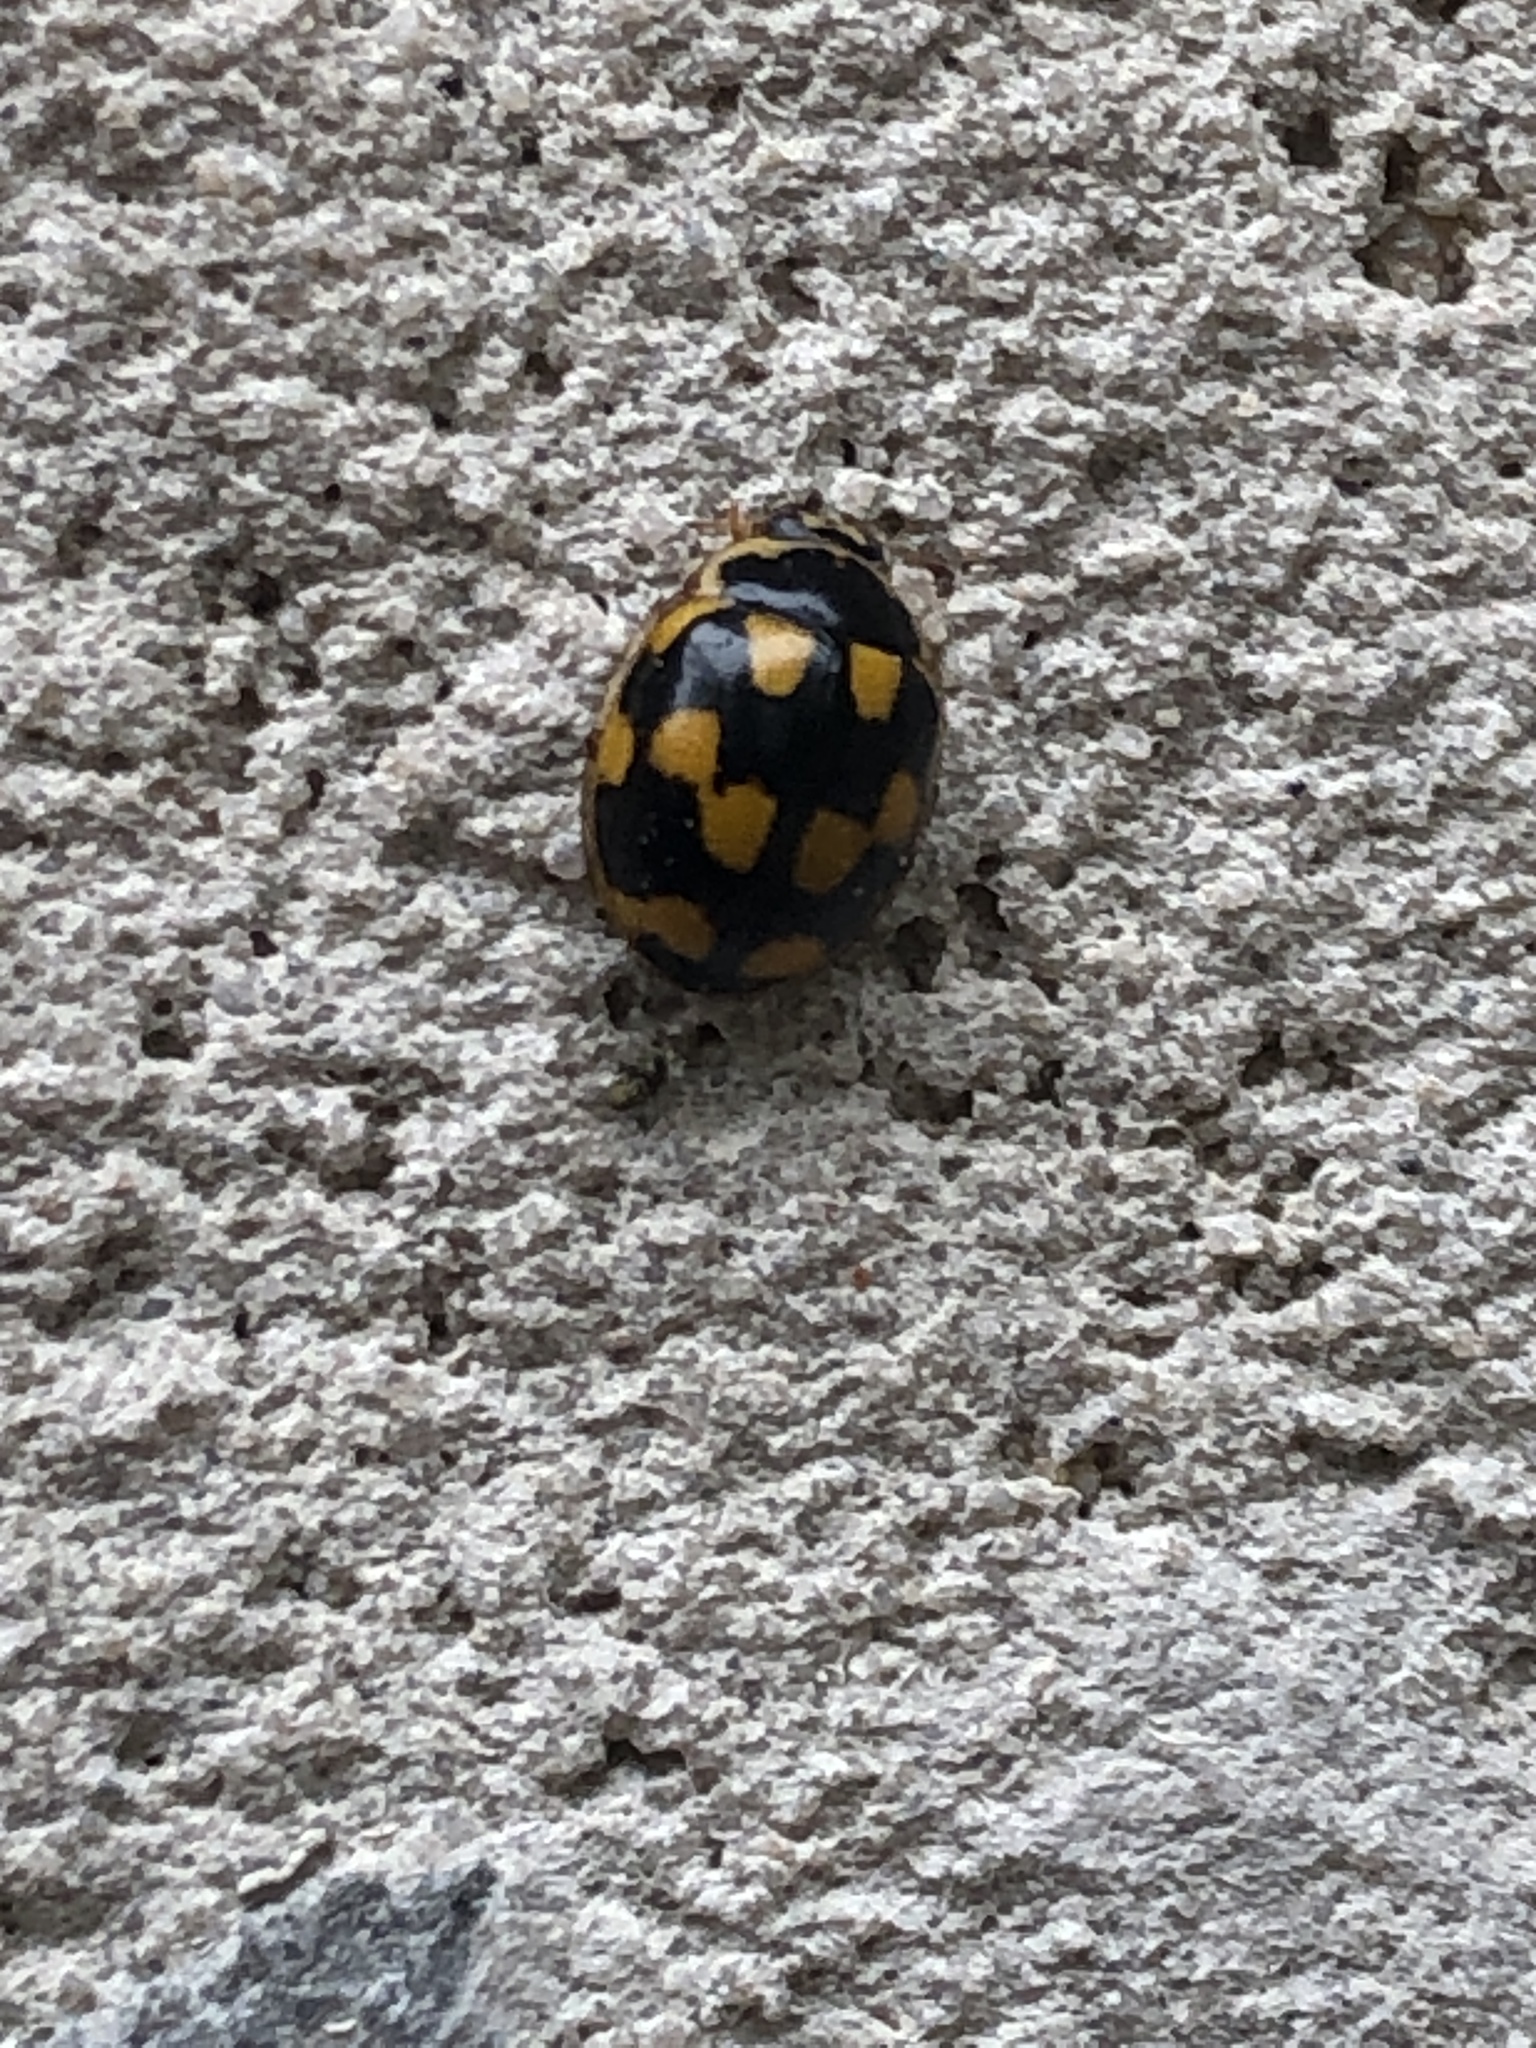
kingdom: Animalia
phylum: Arthropoda
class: Insecta
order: Coleoptera
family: Coccinellidae
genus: Propylaea
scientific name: Propylaea quatuordecimpunctata
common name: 14-spotted ladybird beetle
